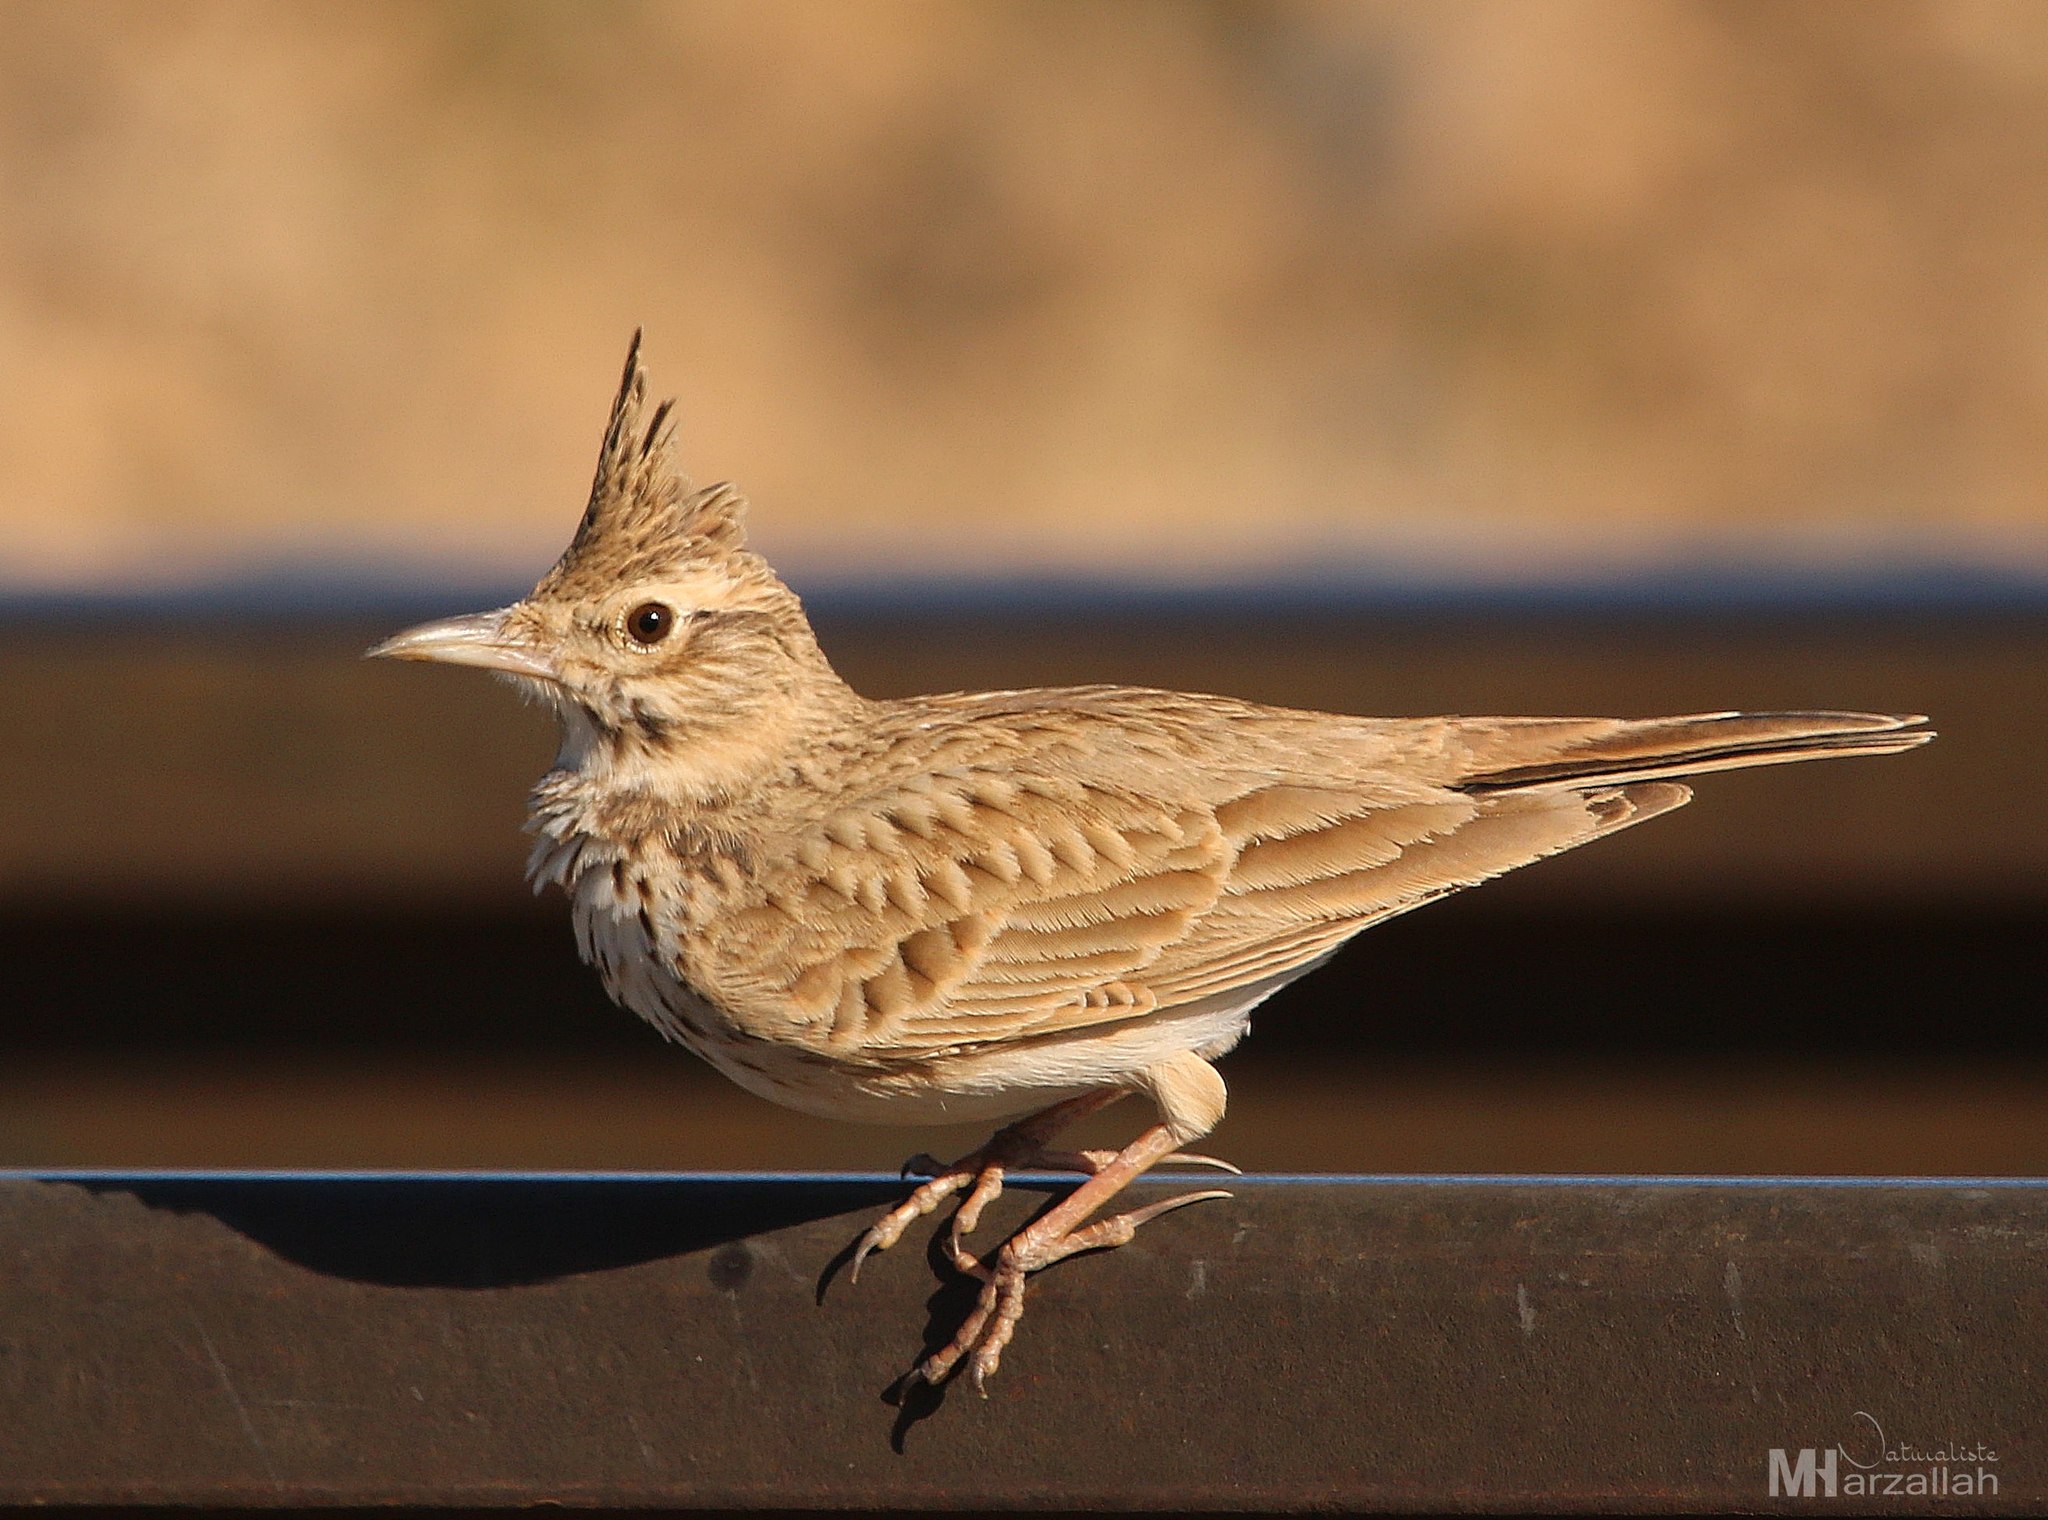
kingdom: Animalia
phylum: Chordata
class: Aves
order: Passeriformes
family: Alaudidae
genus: Galerida
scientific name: Galerida cristata
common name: Crested lark
